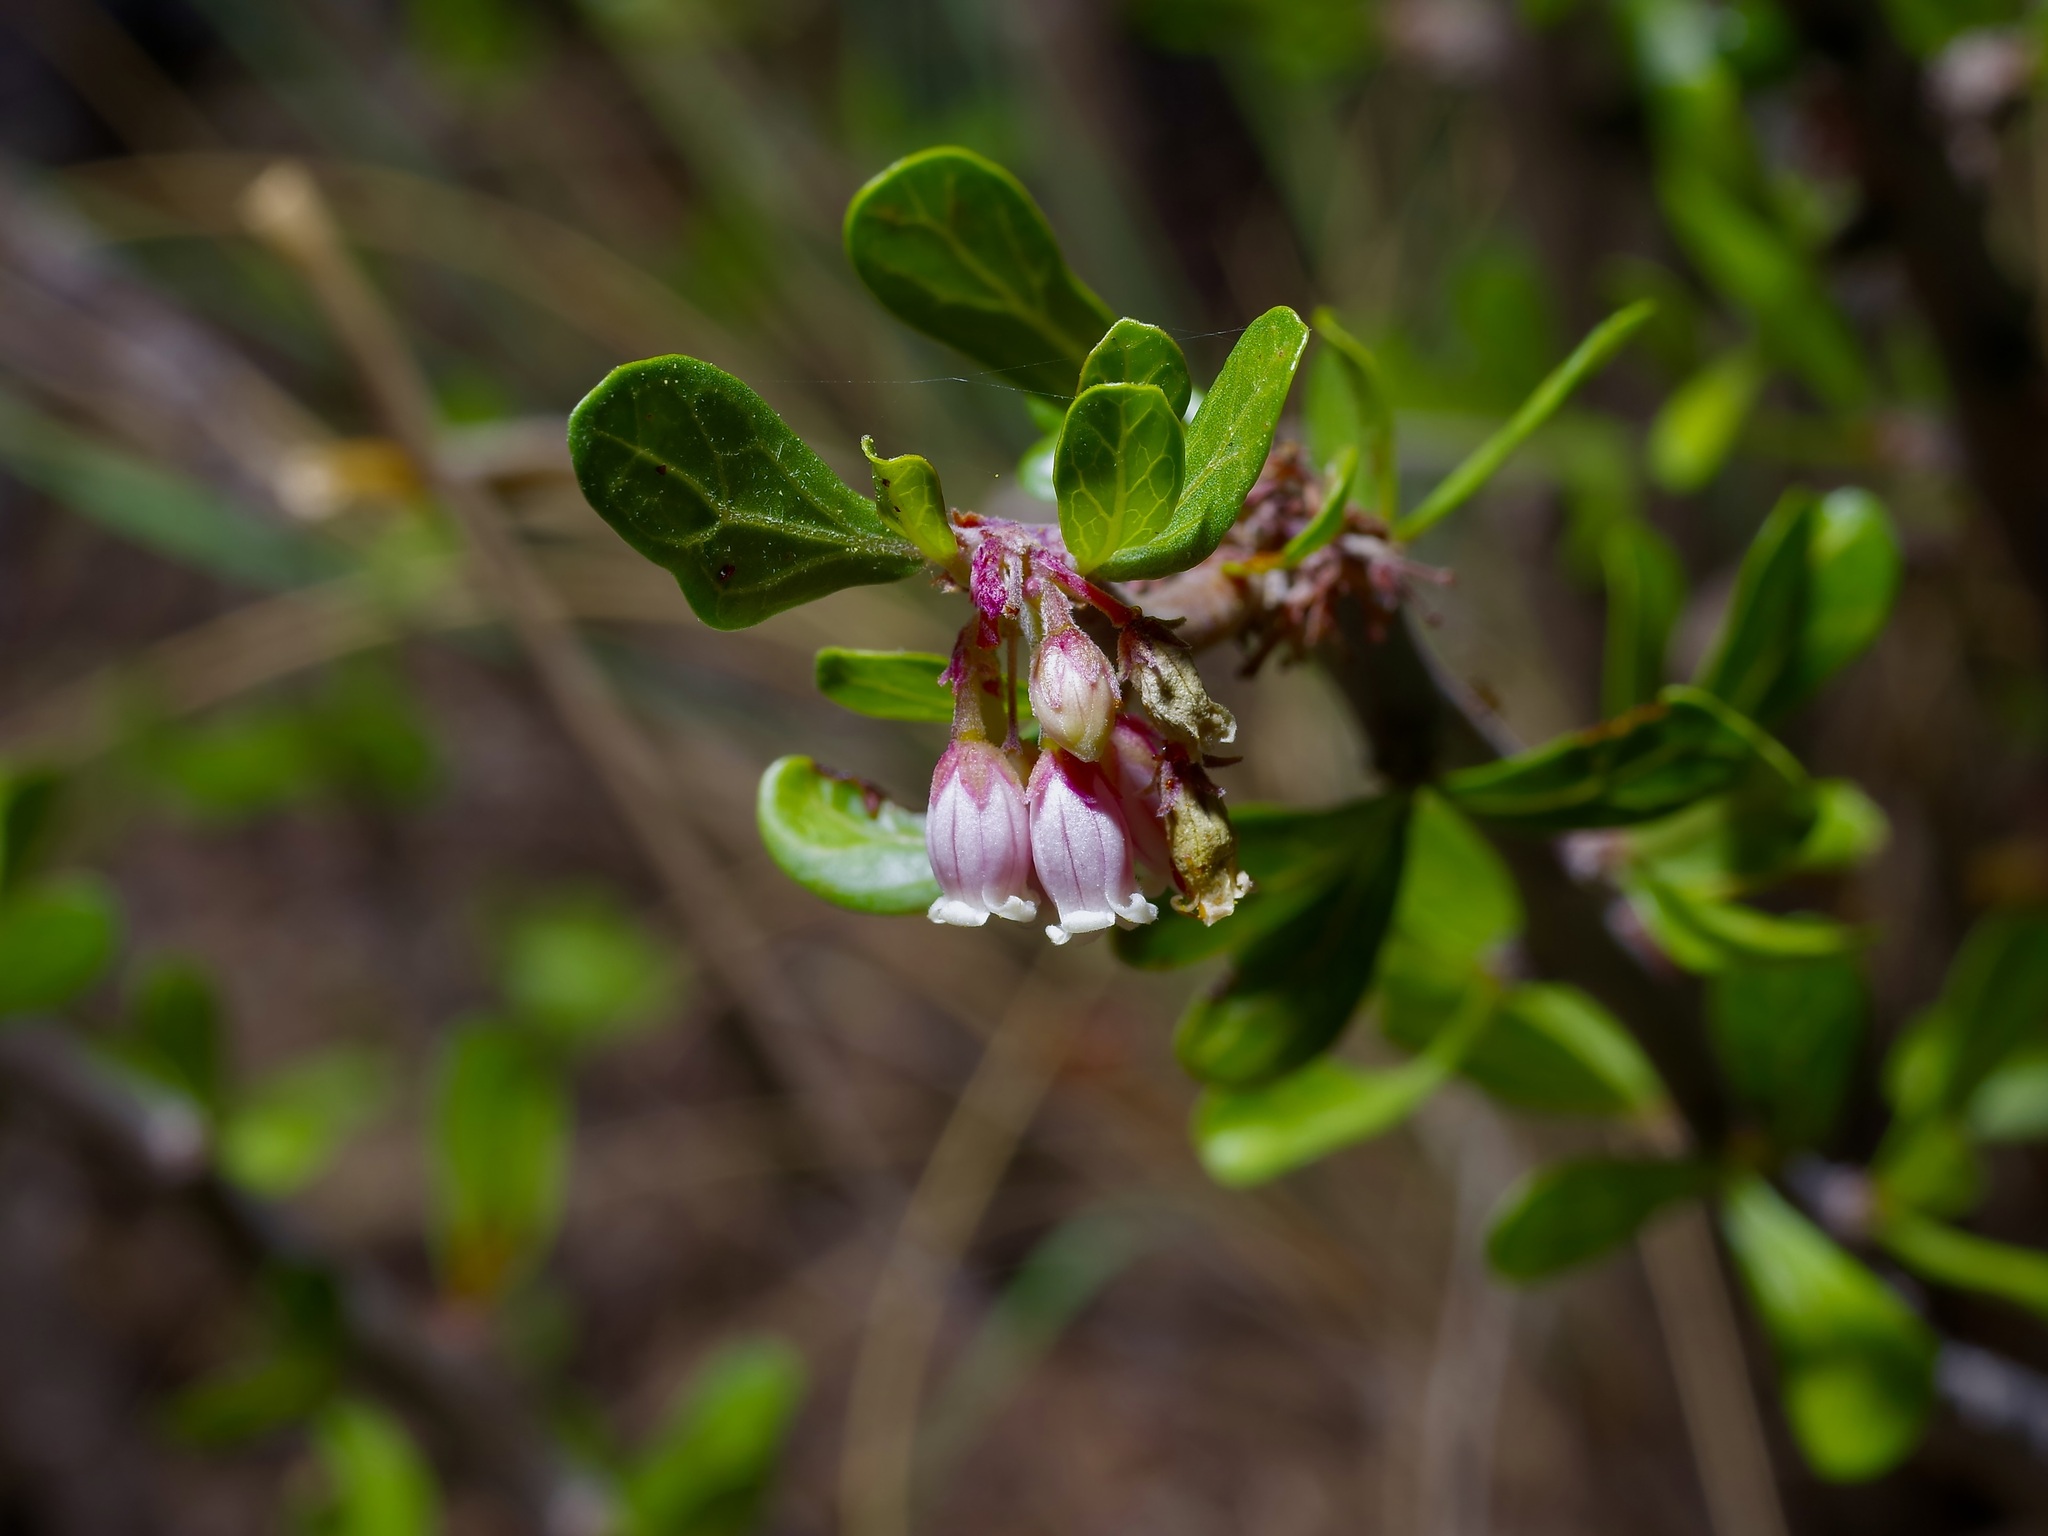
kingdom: Plantae
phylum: Tracheophyta
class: Magnoliopsida
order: Malpighiales
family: Euphorbiaceae
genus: Jatropha
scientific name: Jatropha dioica
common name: Leatherstem
